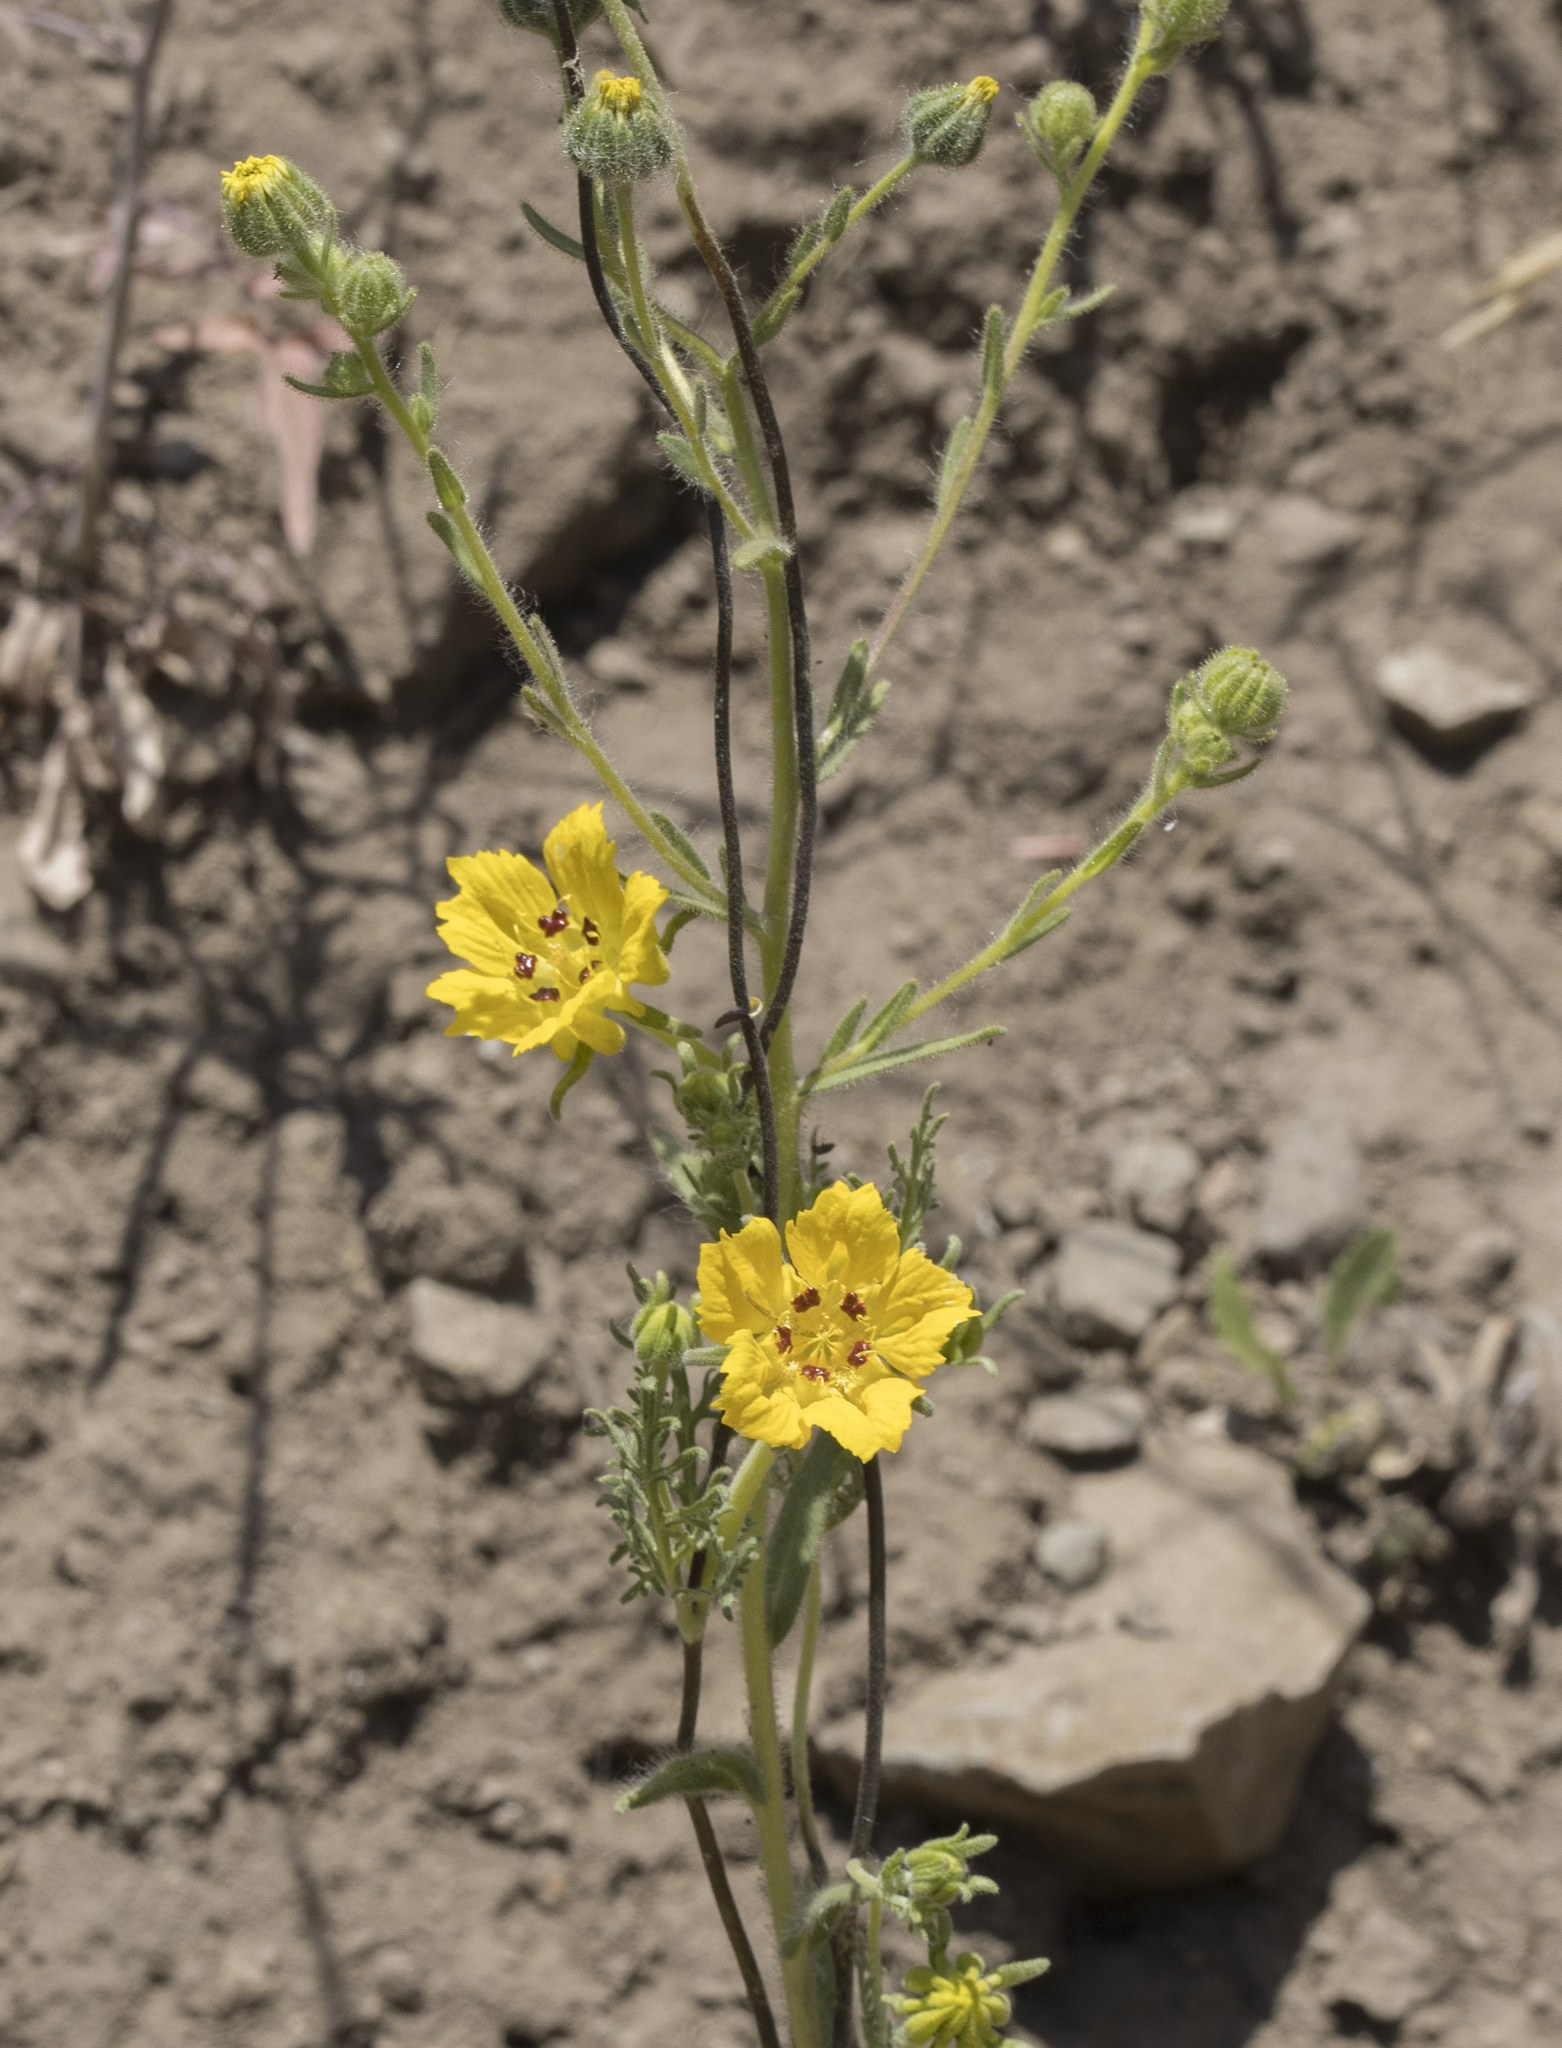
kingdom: Plantae
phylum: Tracheophyta
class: Magnoliopsida
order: Cornales
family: Loasaceae
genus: Scyphanthus
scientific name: Scyphanthus elegans
